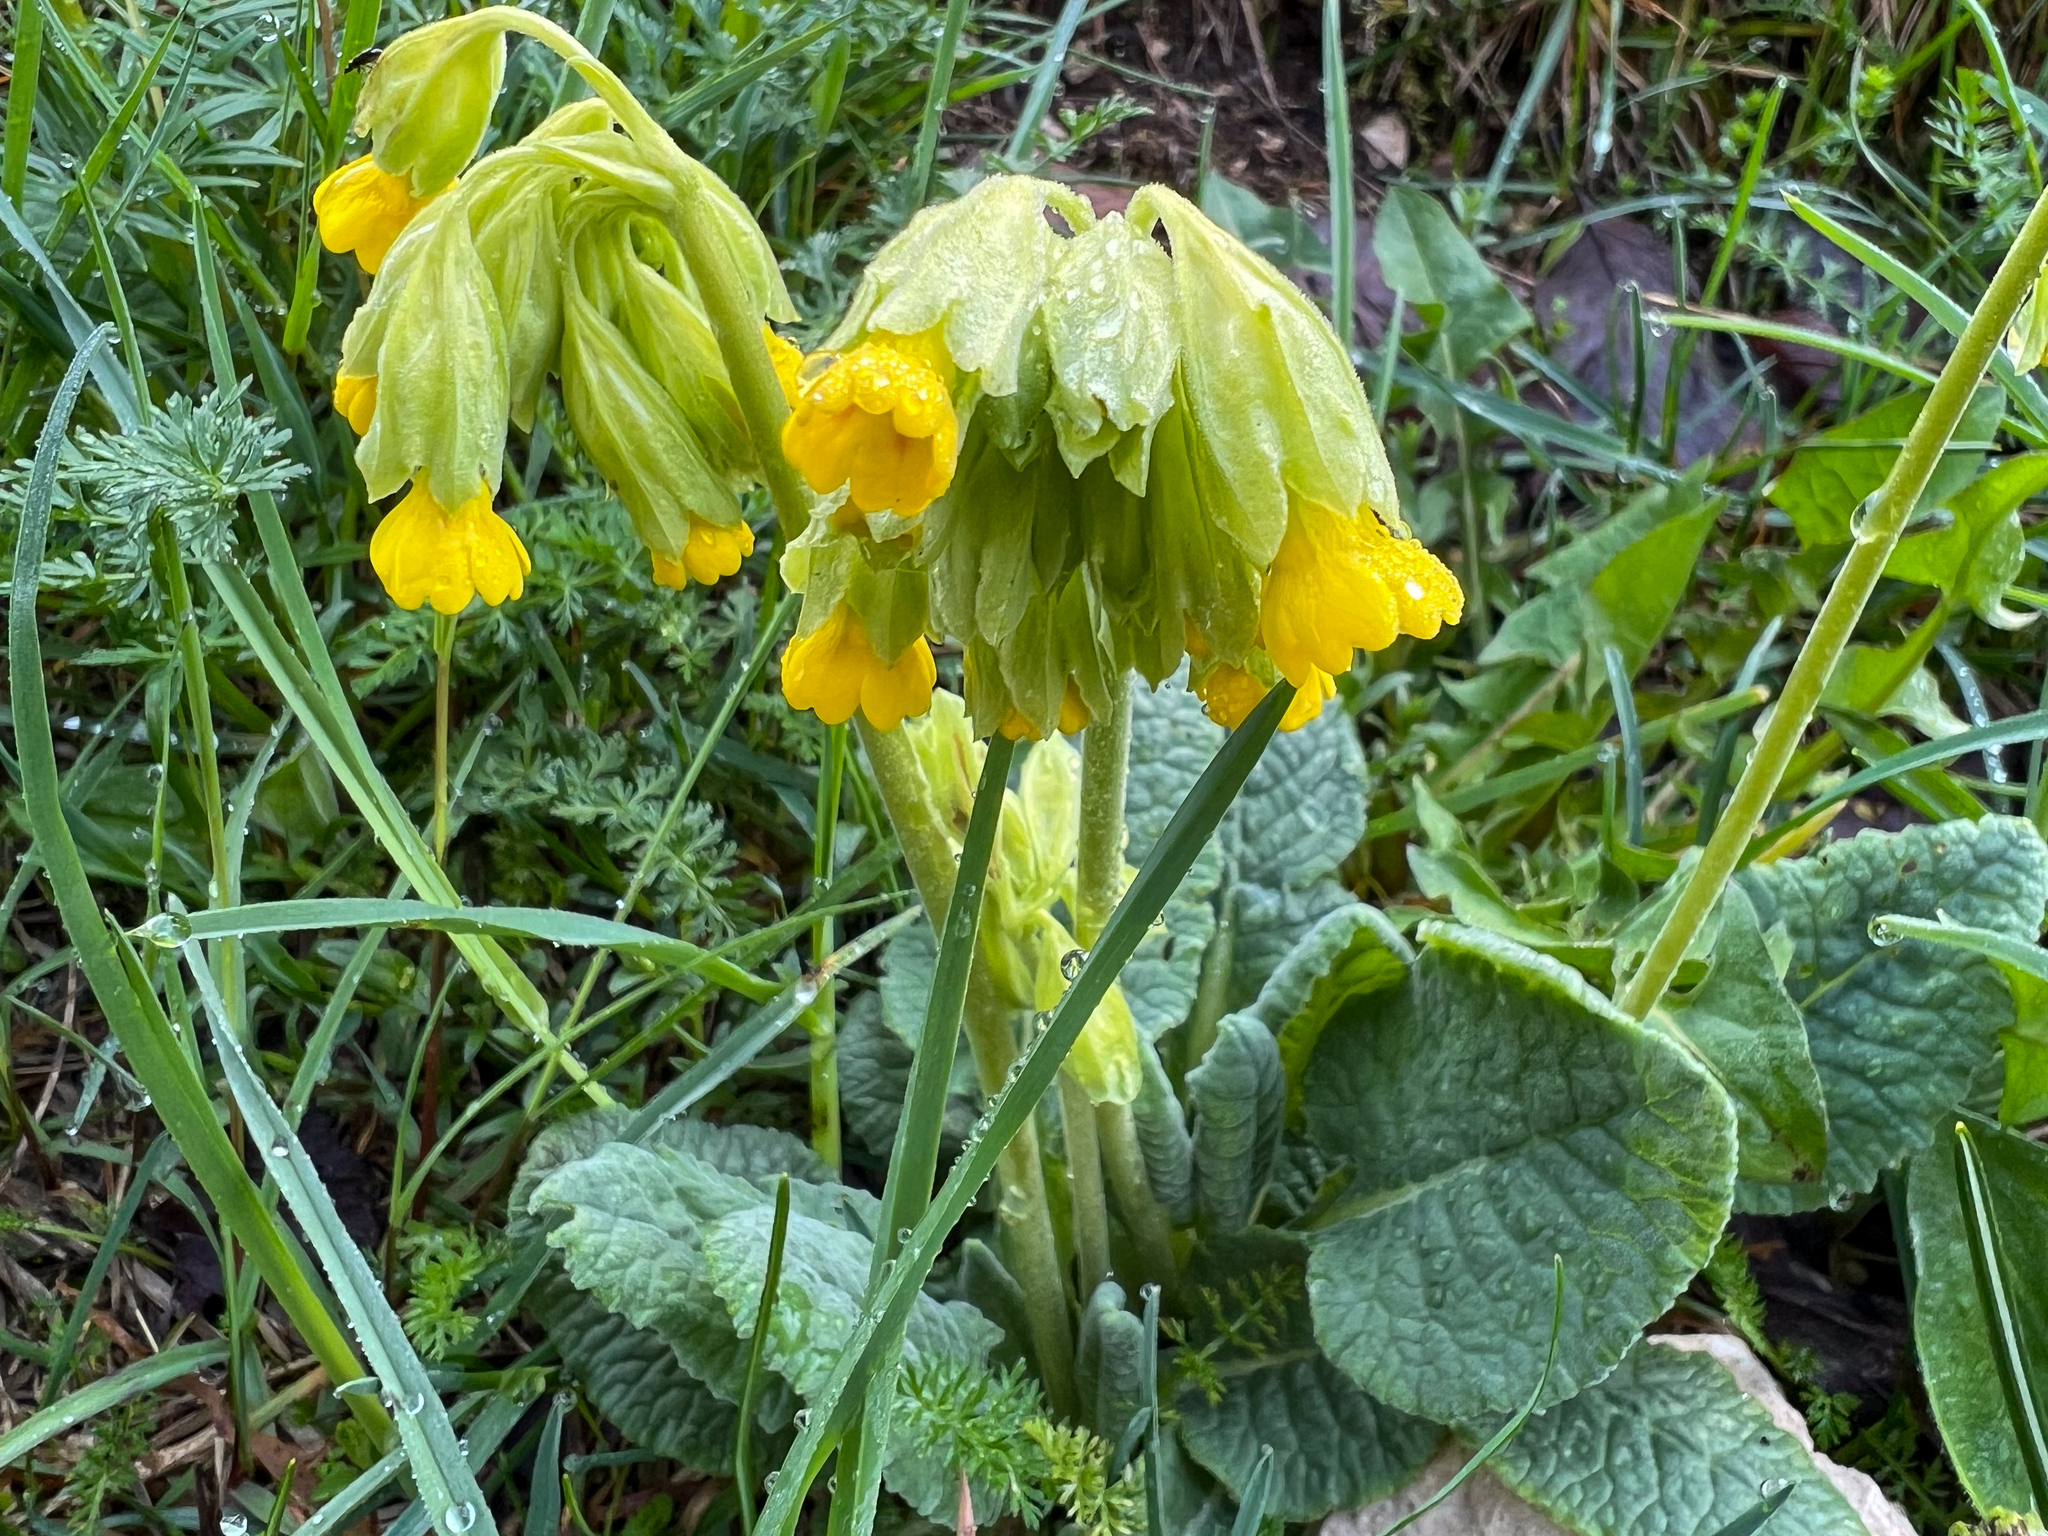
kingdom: Plantae
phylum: Tracheophyta
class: Magnoliopsida
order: Ericales
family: Primulaceae
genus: Primula
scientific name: Primula veris
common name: Cowslip
